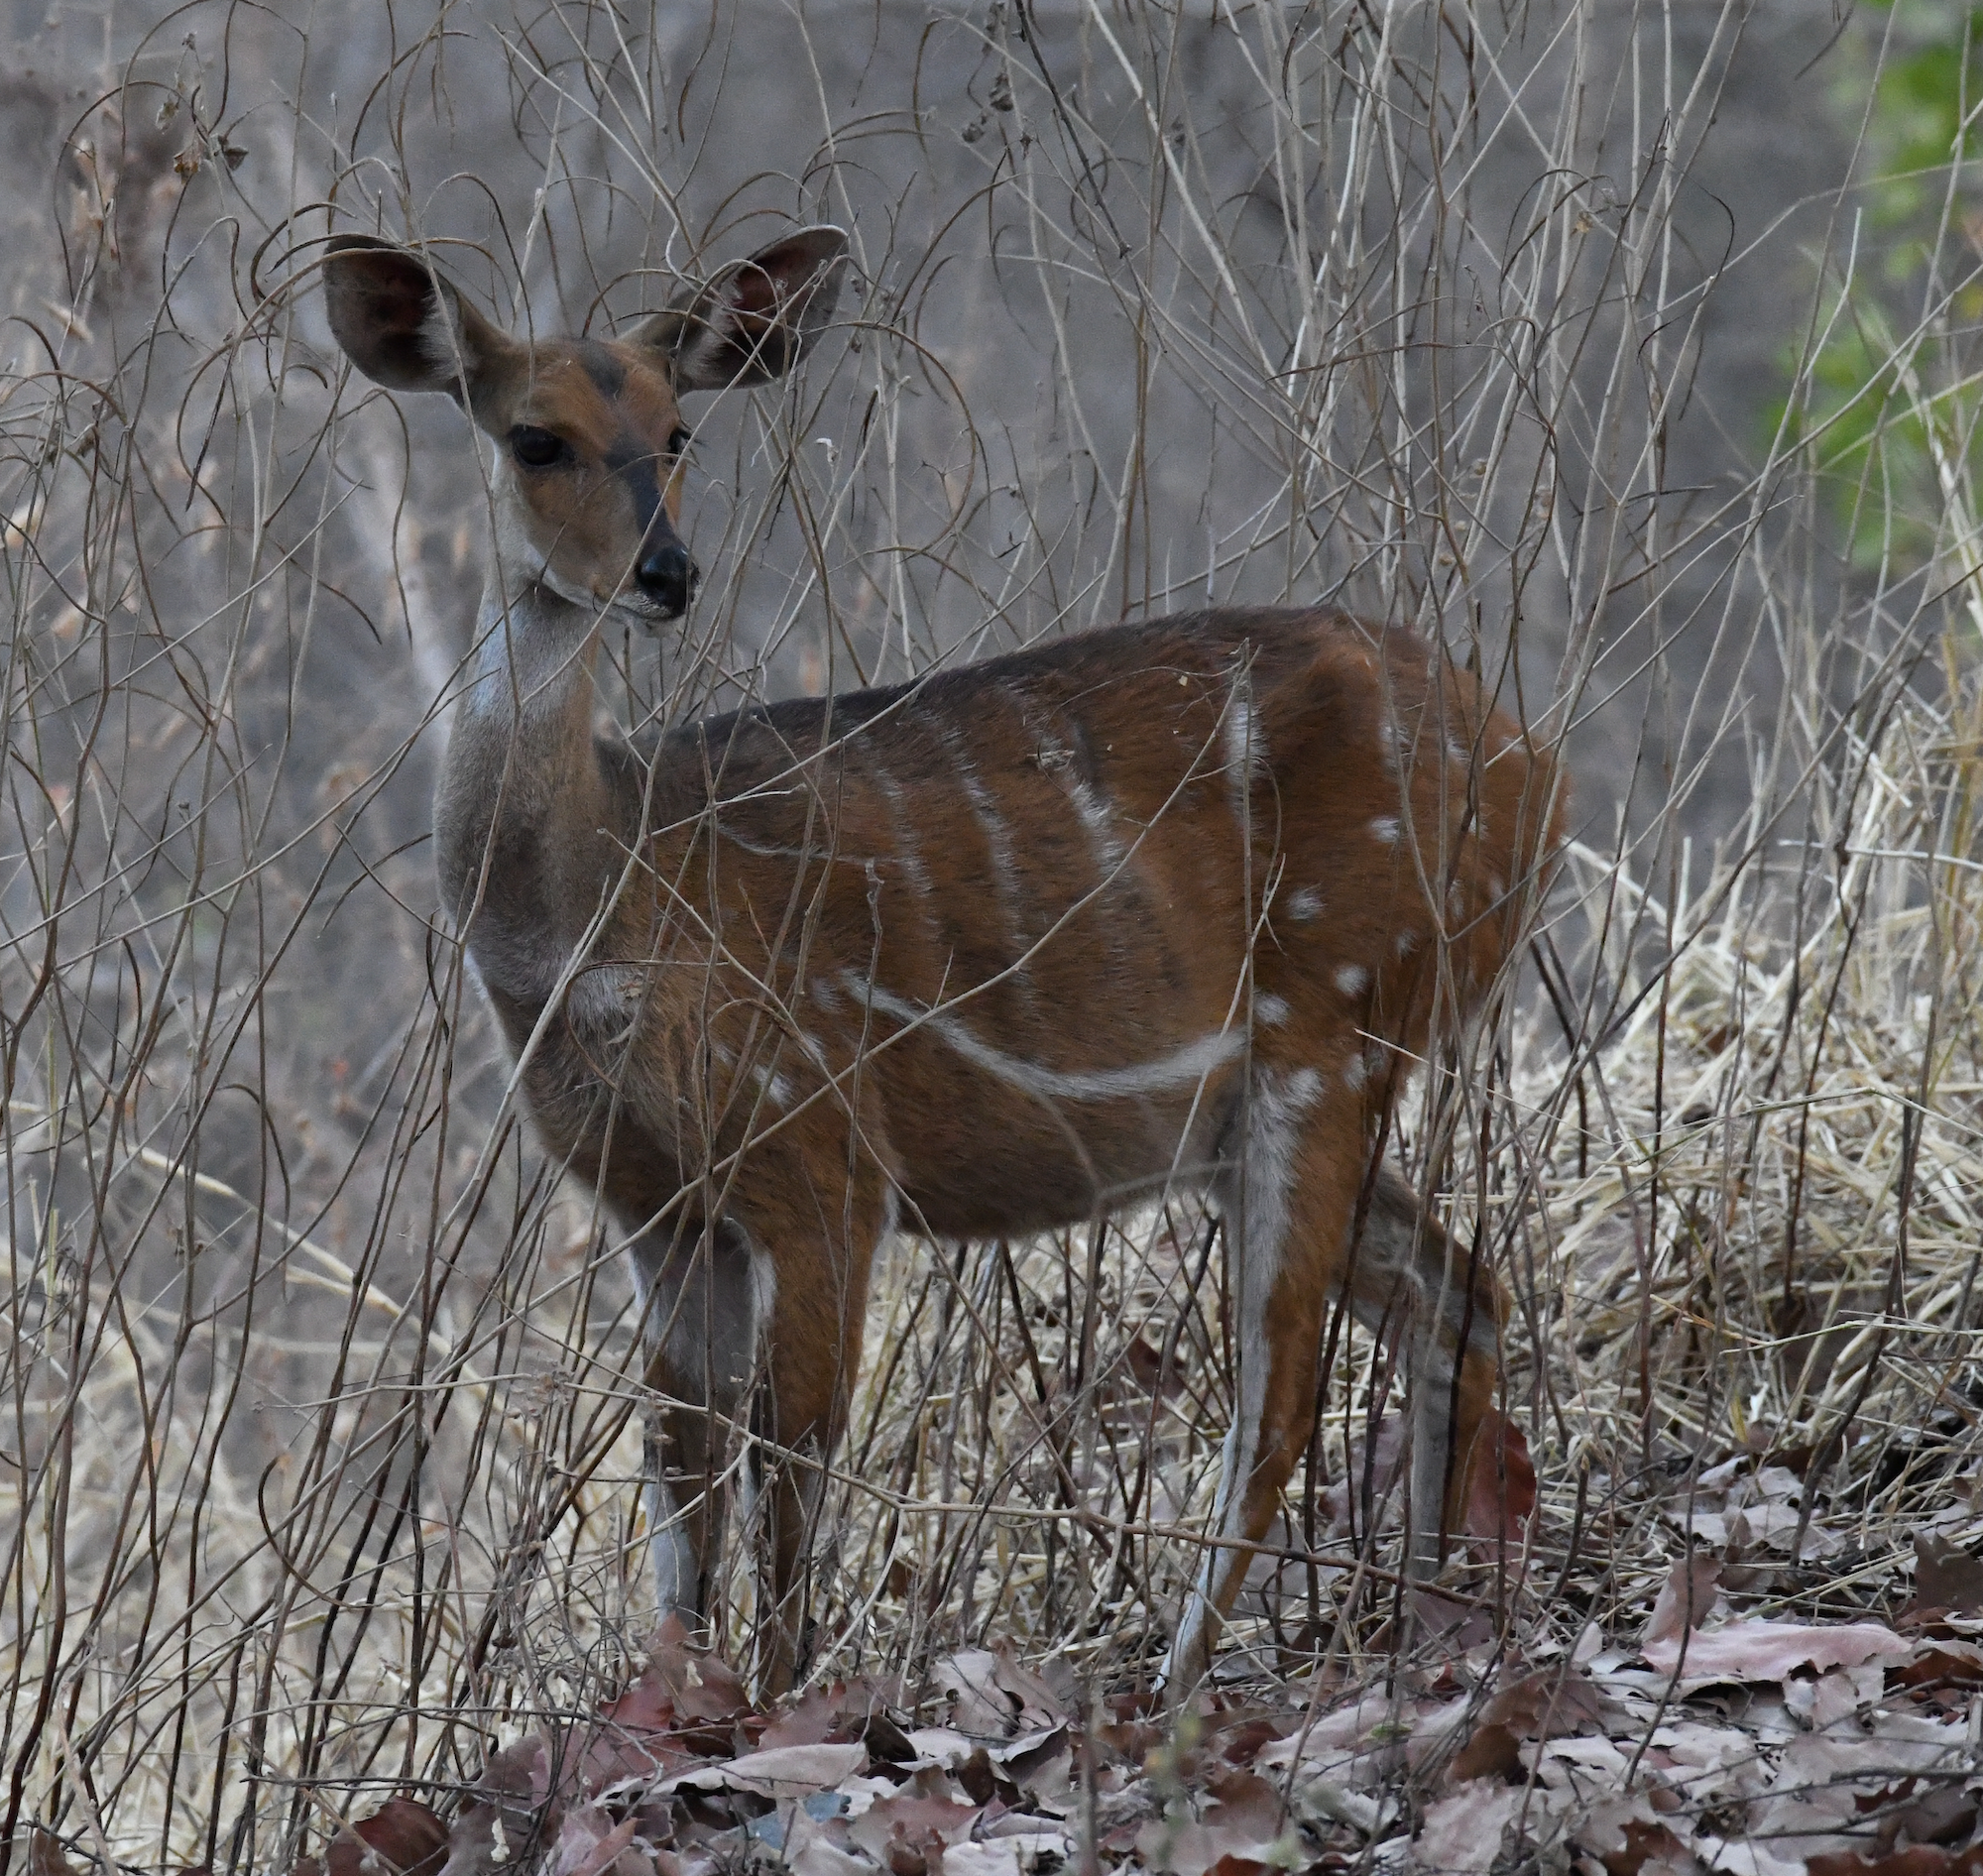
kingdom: Animalia
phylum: Chordata
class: Mammalia
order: Artiodactyla
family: Bovidae
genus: Tragelaphus
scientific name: Tragelaphus scriptus
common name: Bushbuck
